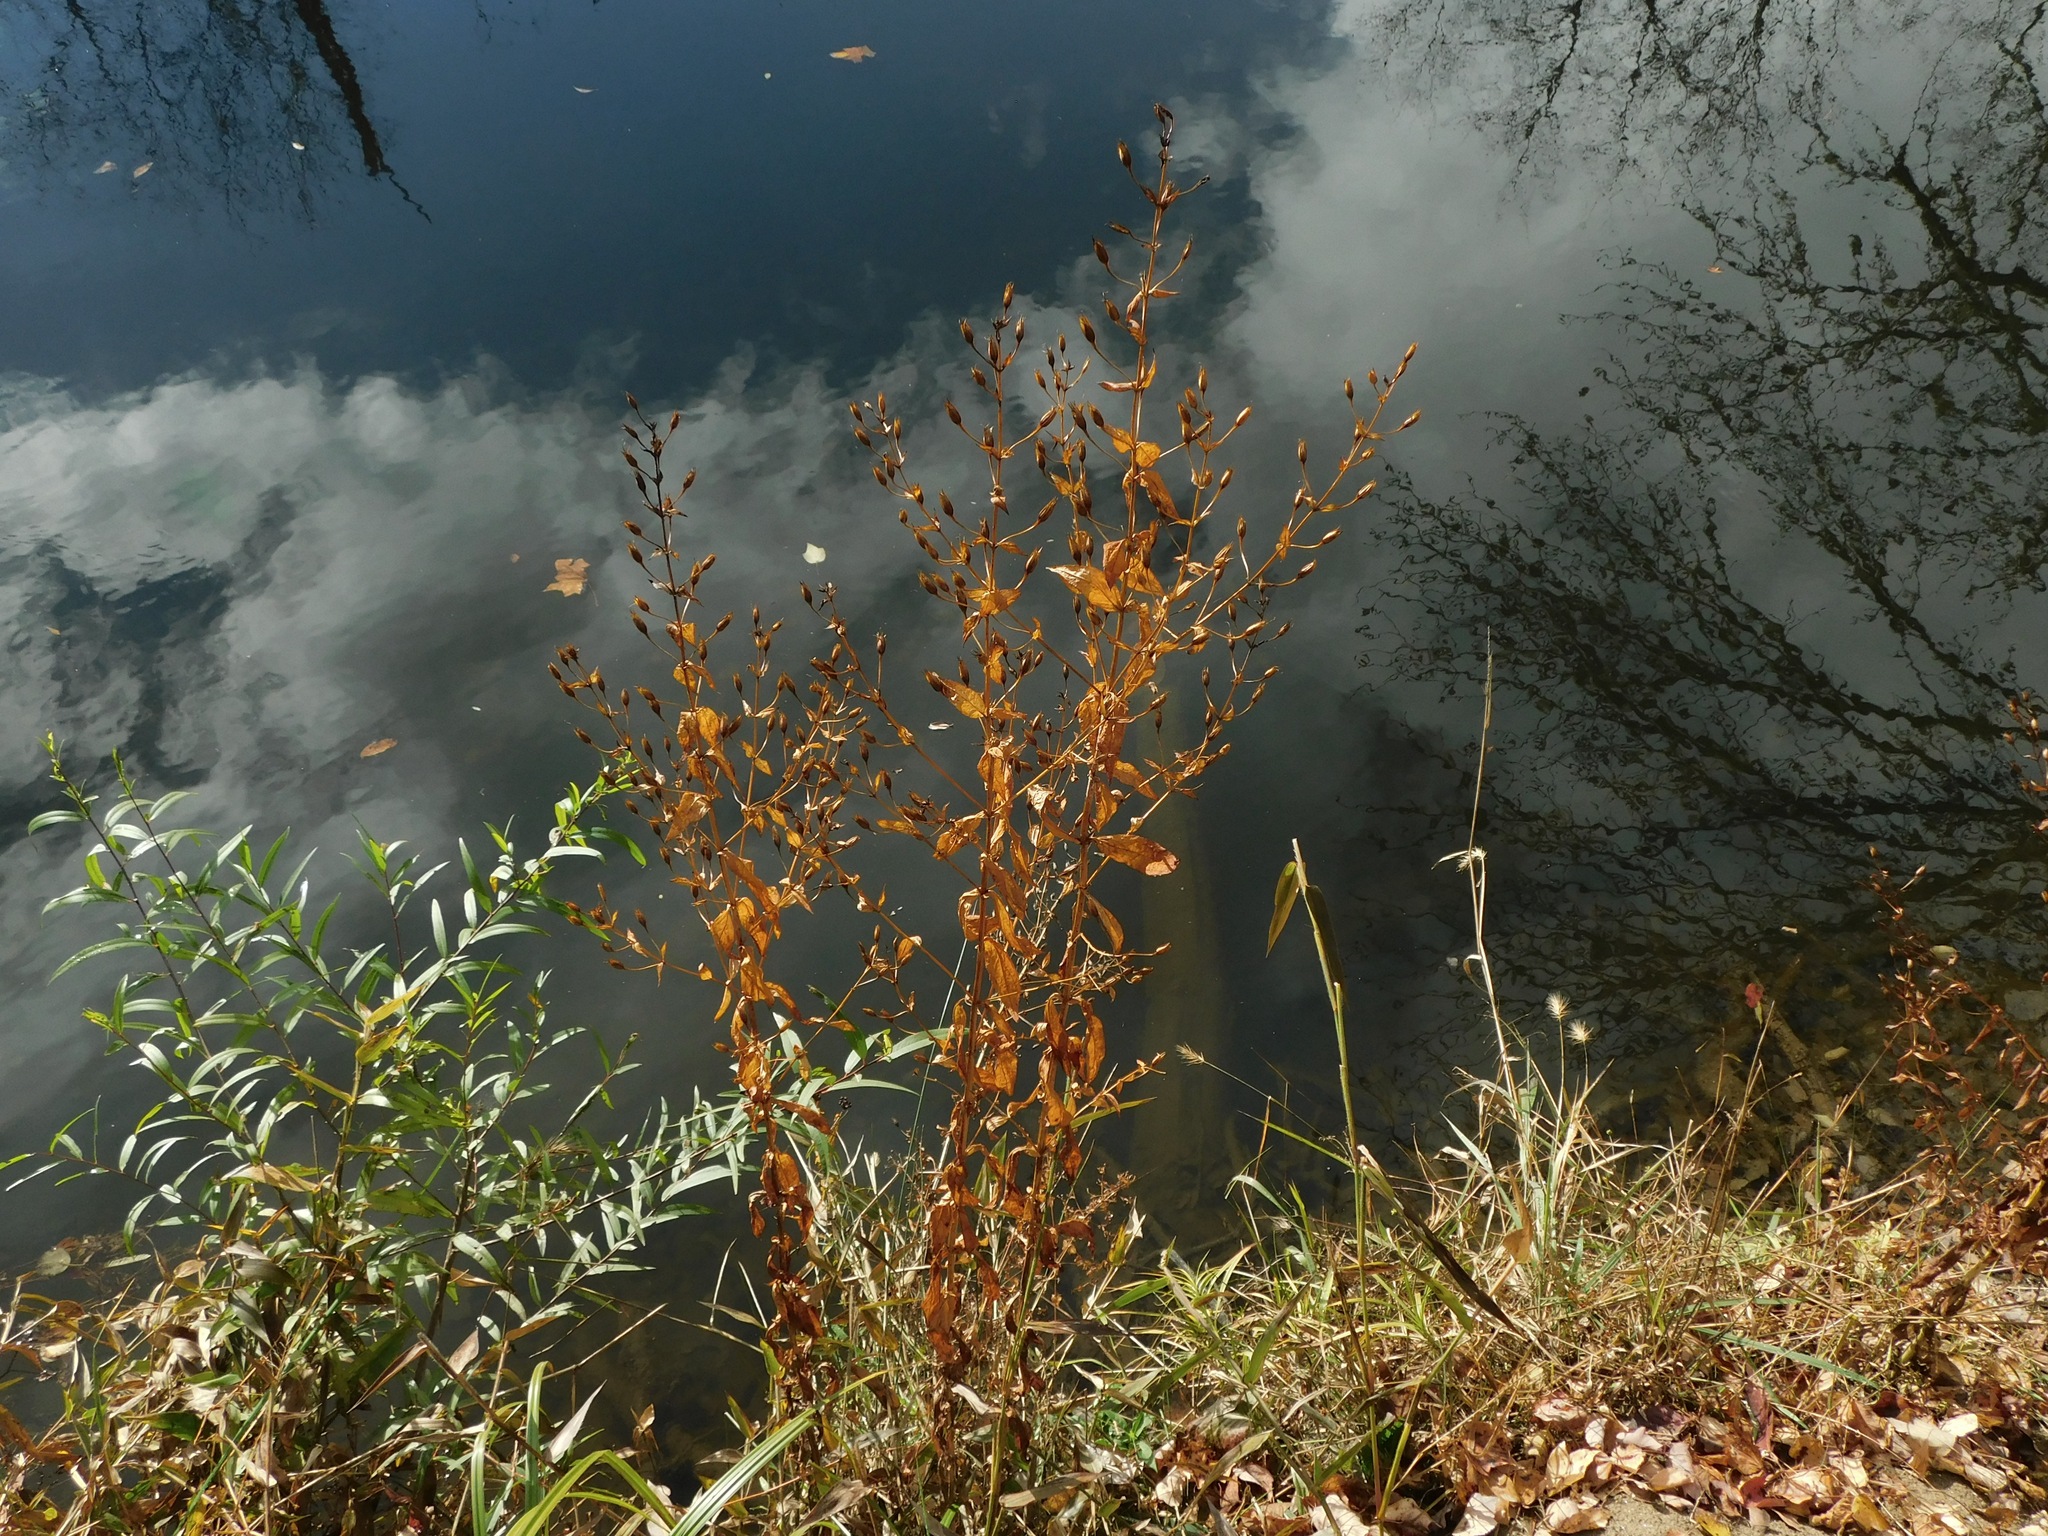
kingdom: Plantae
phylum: Tracheophyta
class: Magnoliopsida
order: Lamiales
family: Phrymaceae
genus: Mimulus
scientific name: Mimulus ringens
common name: Allegheny monkeyflower
